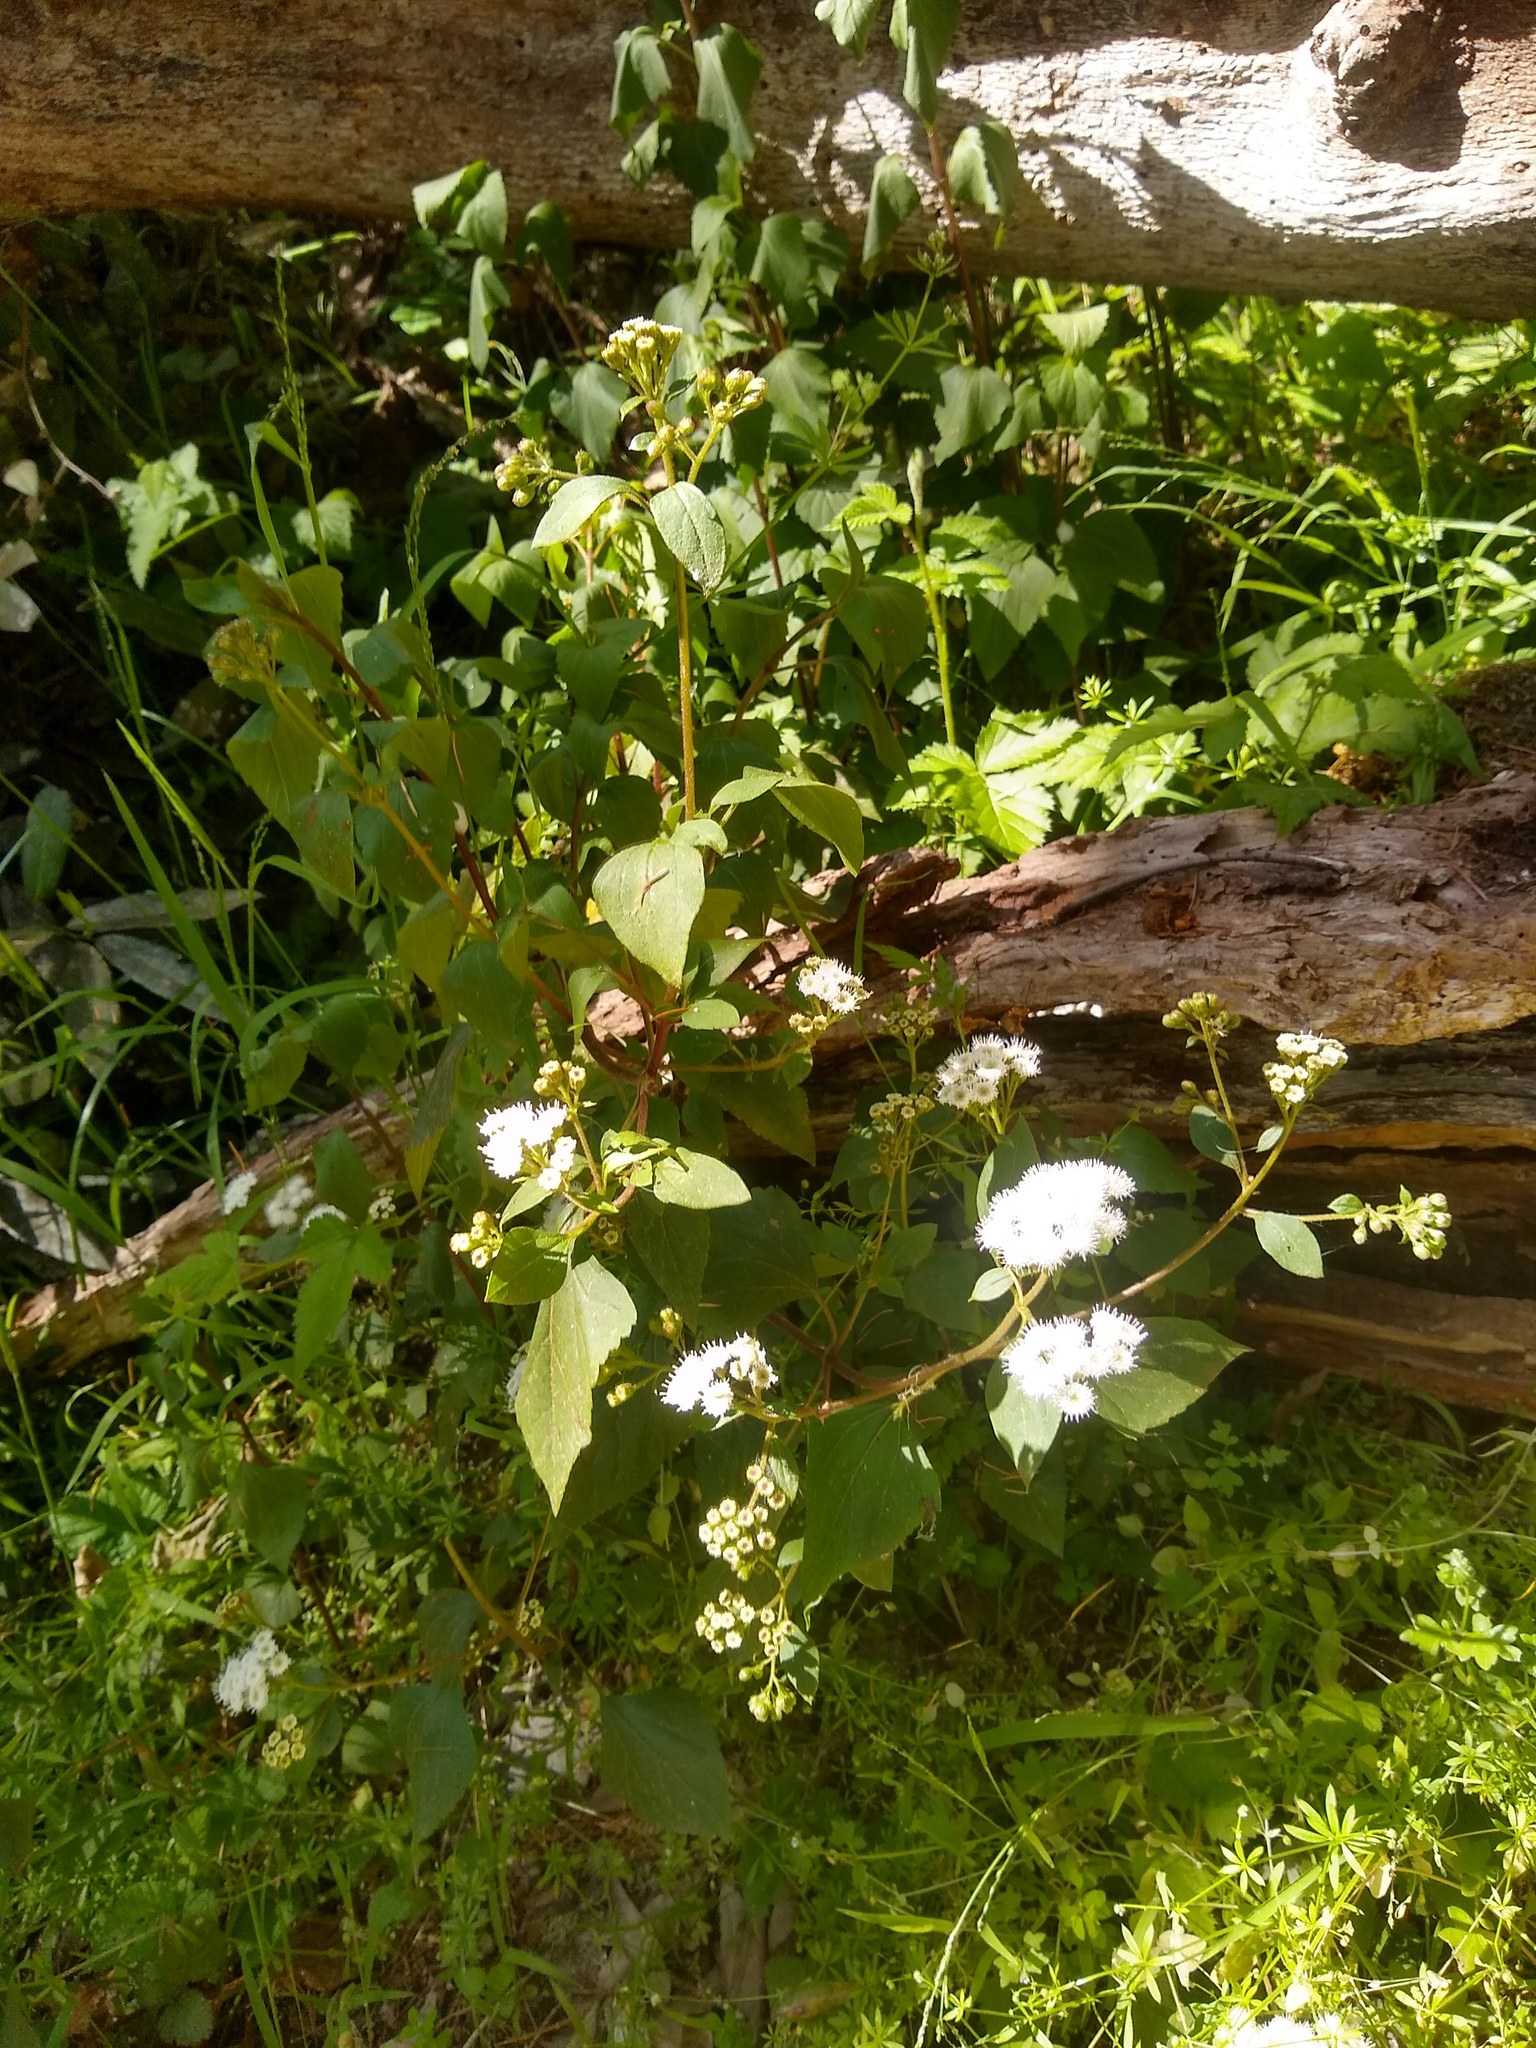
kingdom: Plantae
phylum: Tracheophyta
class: Magnoliopsida
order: Asterales
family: Asteraceae
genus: Ageratina
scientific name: Ageratina adenophora
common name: Sticky snakeroot
